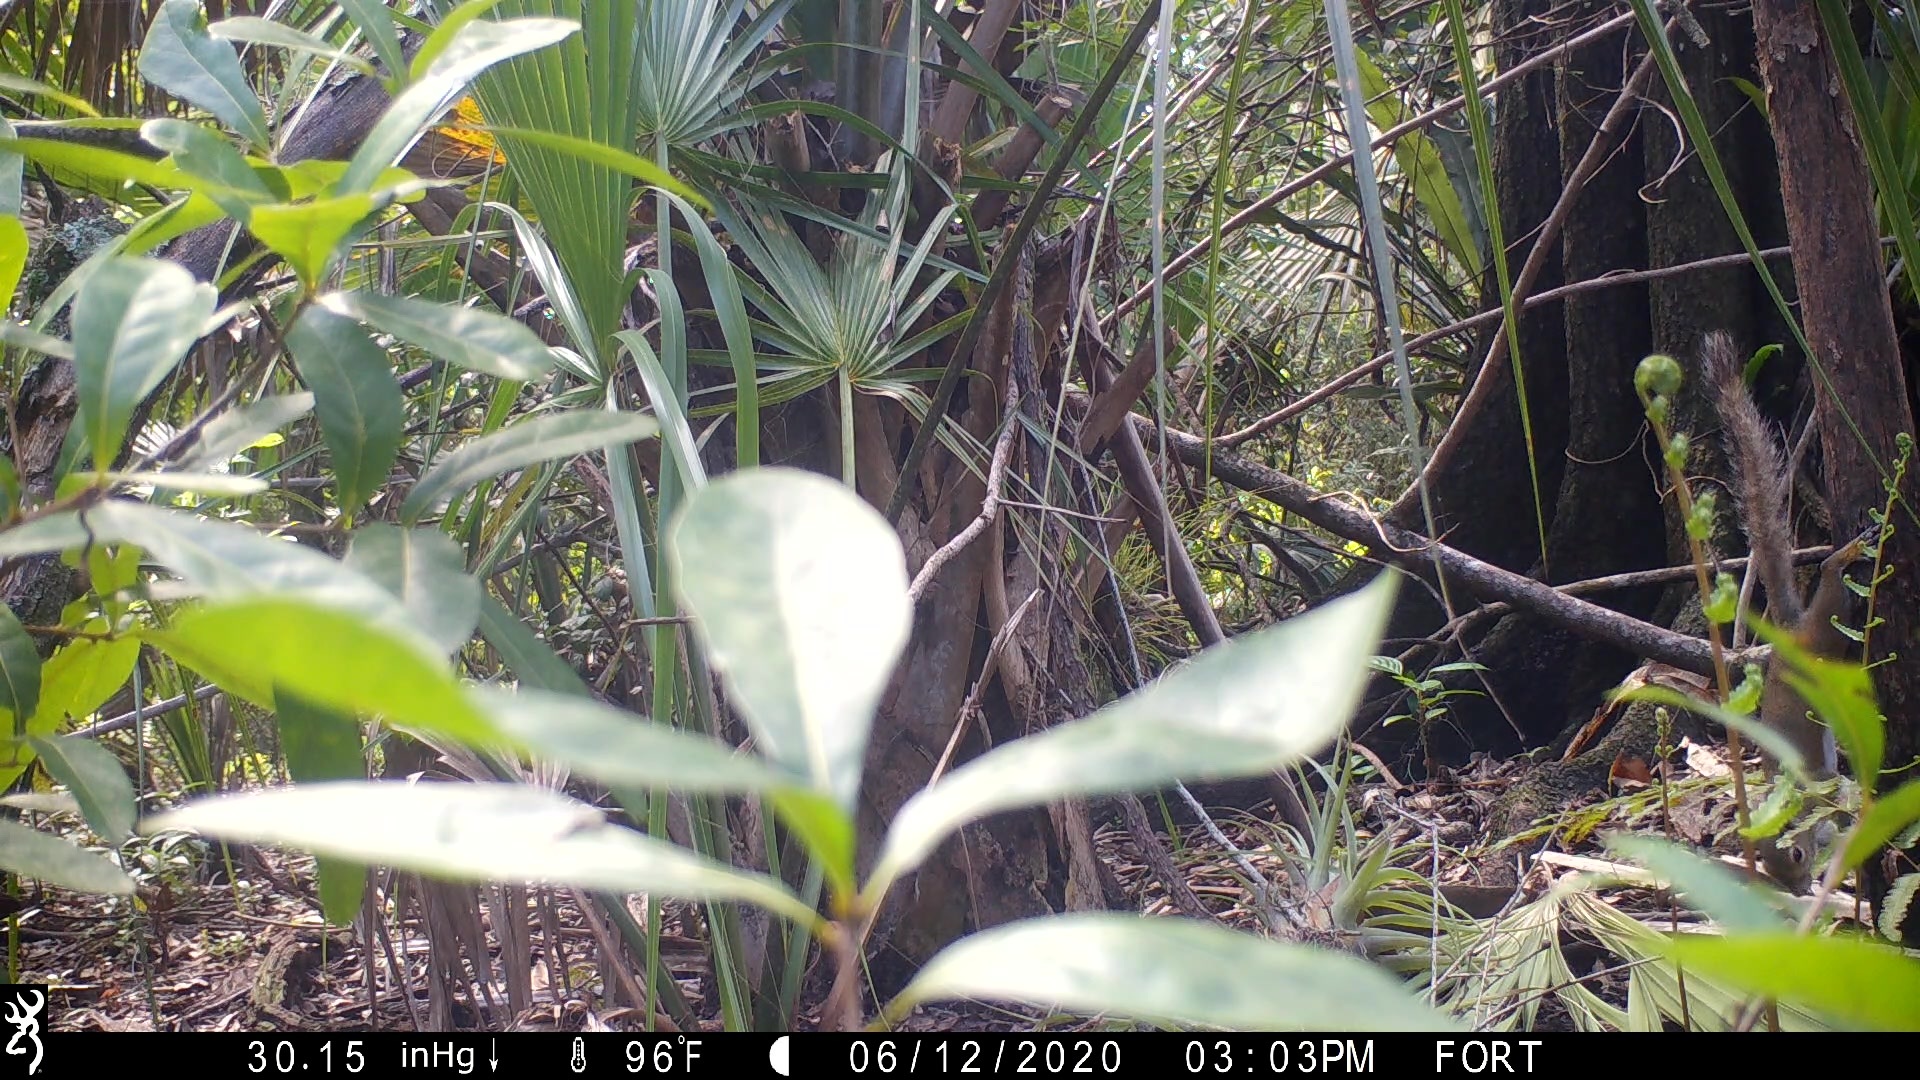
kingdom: Animalia
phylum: Chordata
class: Mammalia
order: Rodentia
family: Sciuridae
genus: Sciurus
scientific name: Sciurus carolinensis
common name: Eastern gray squirrel
